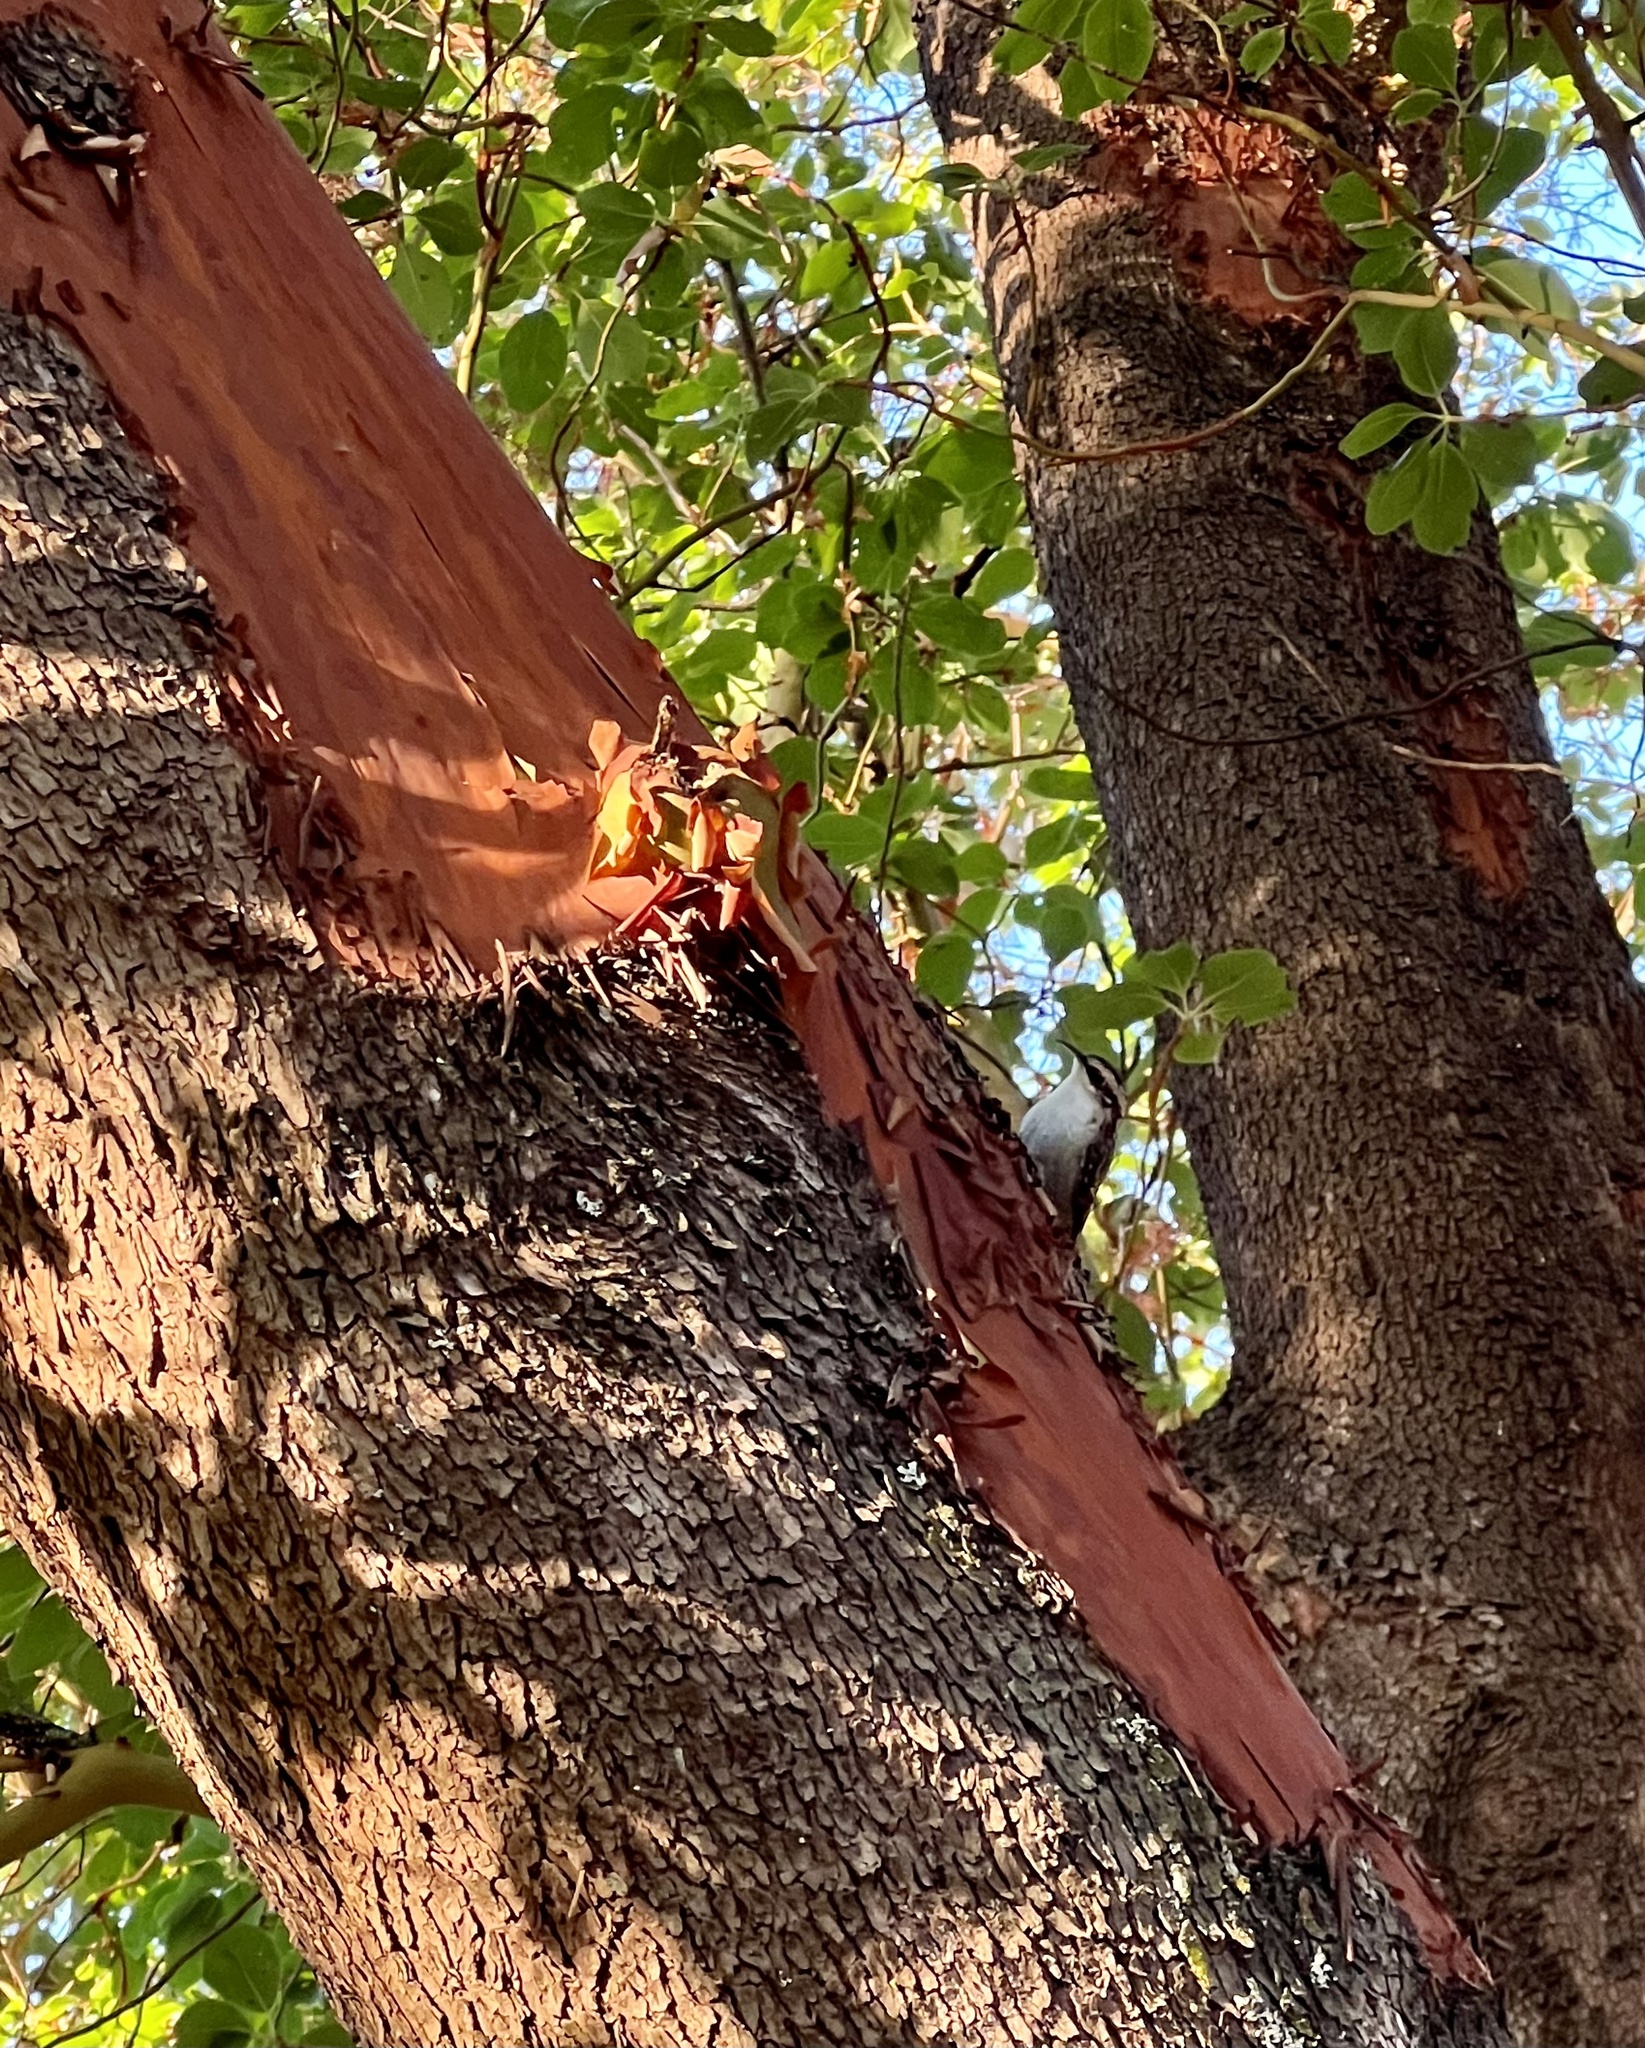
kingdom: Animalia
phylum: Chordata
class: Aves
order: Passeriformes
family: Certhiidae
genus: Certhia
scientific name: Certhia americana
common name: Brown creeper
